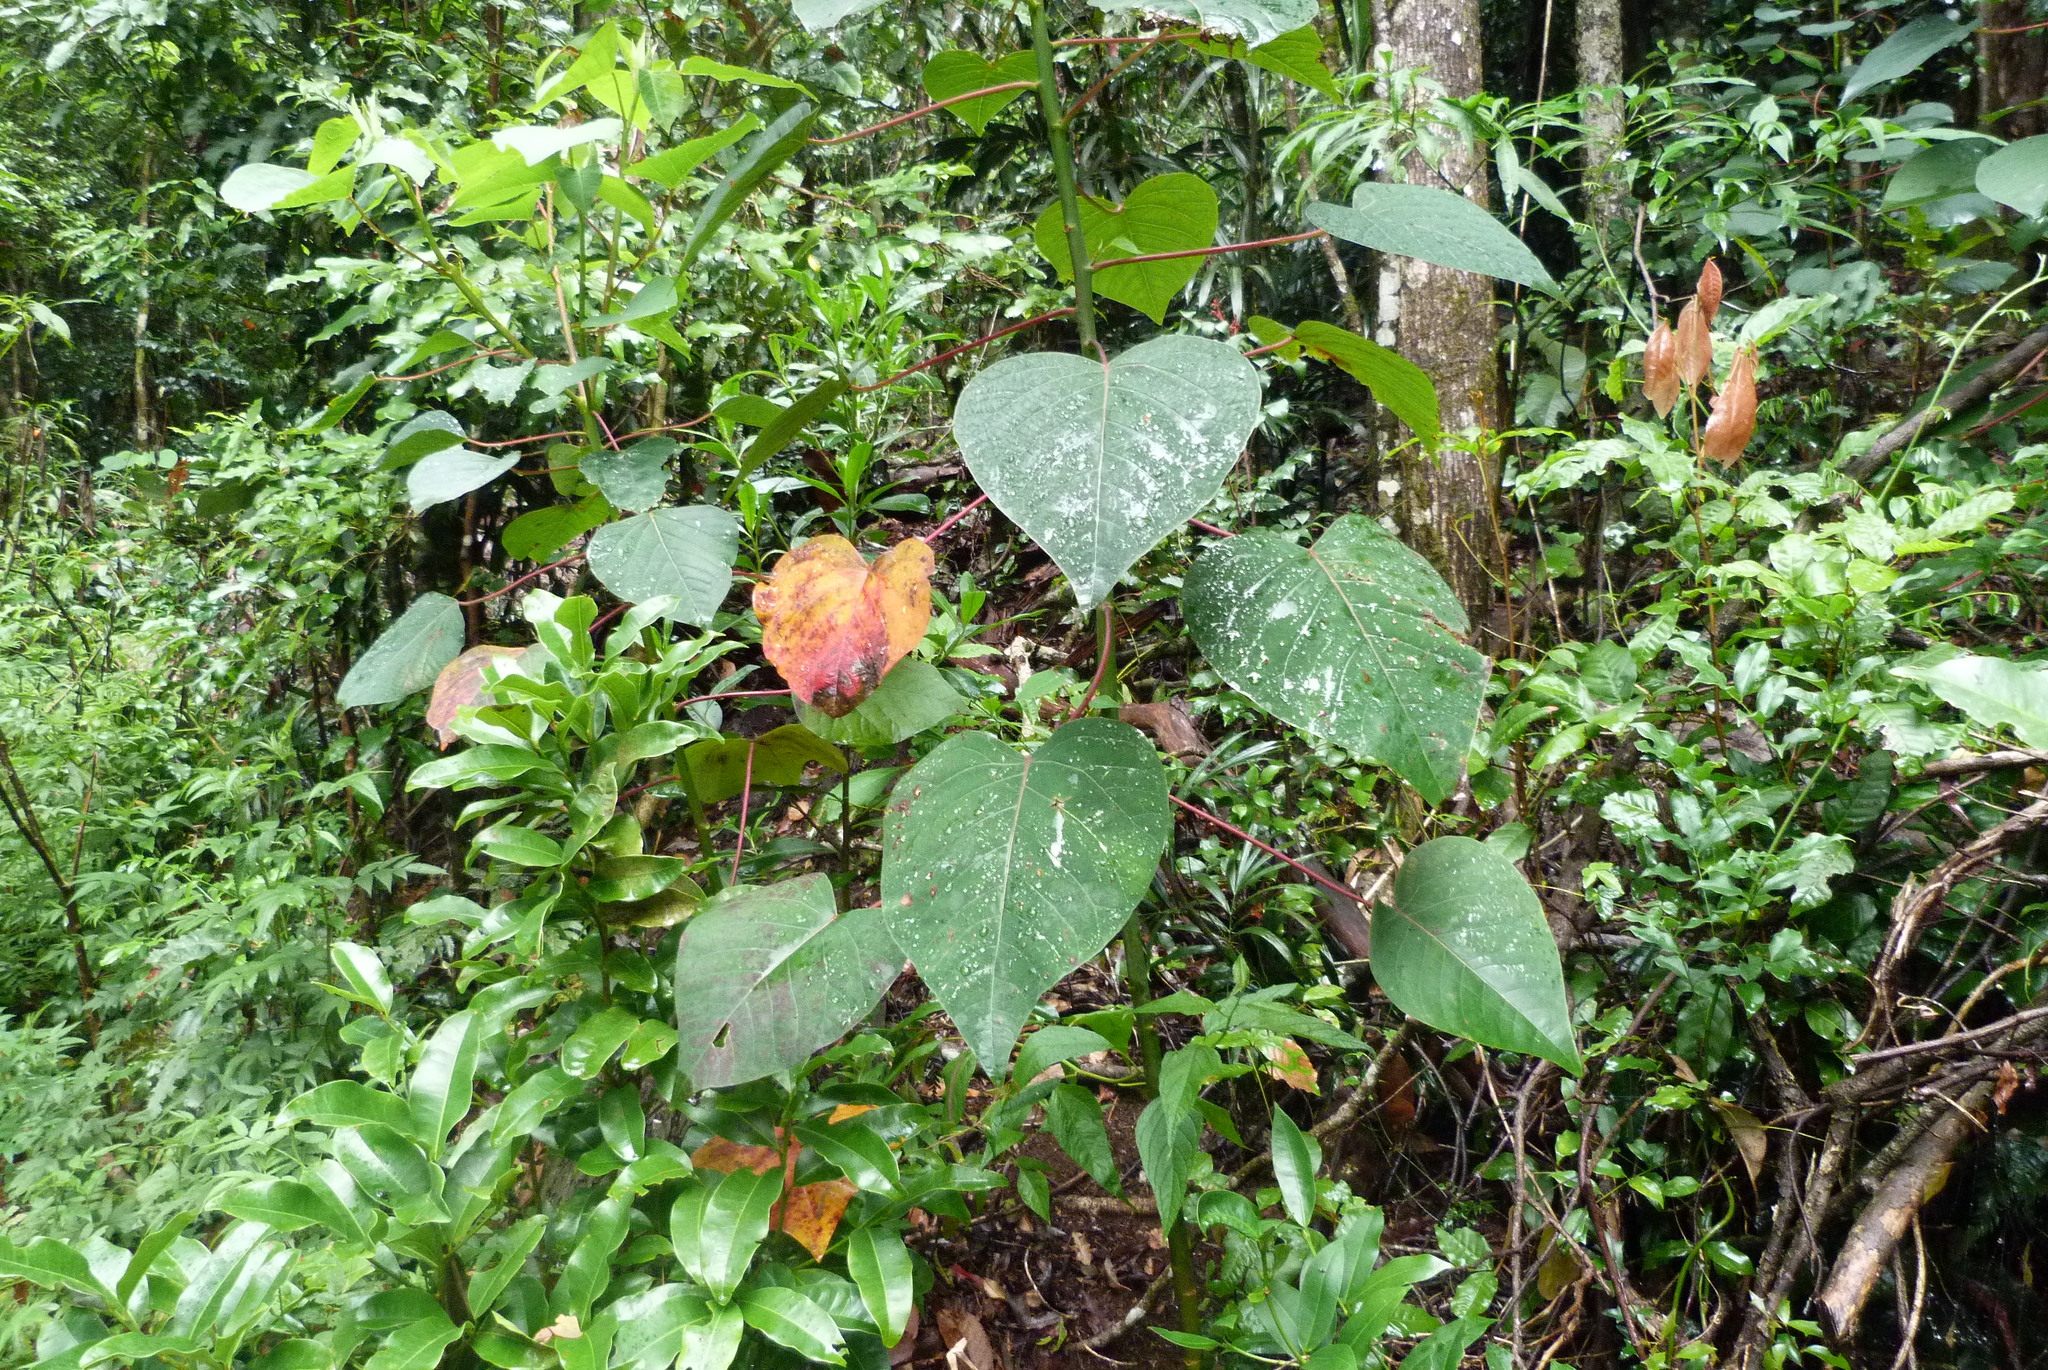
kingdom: Plantae
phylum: Tracheophyta
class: Magnoliopsida
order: Malpighiales
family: Euphorbiaceae
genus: Homalanthus
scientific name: Homalanthus populifolius
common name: Queensland poplar
